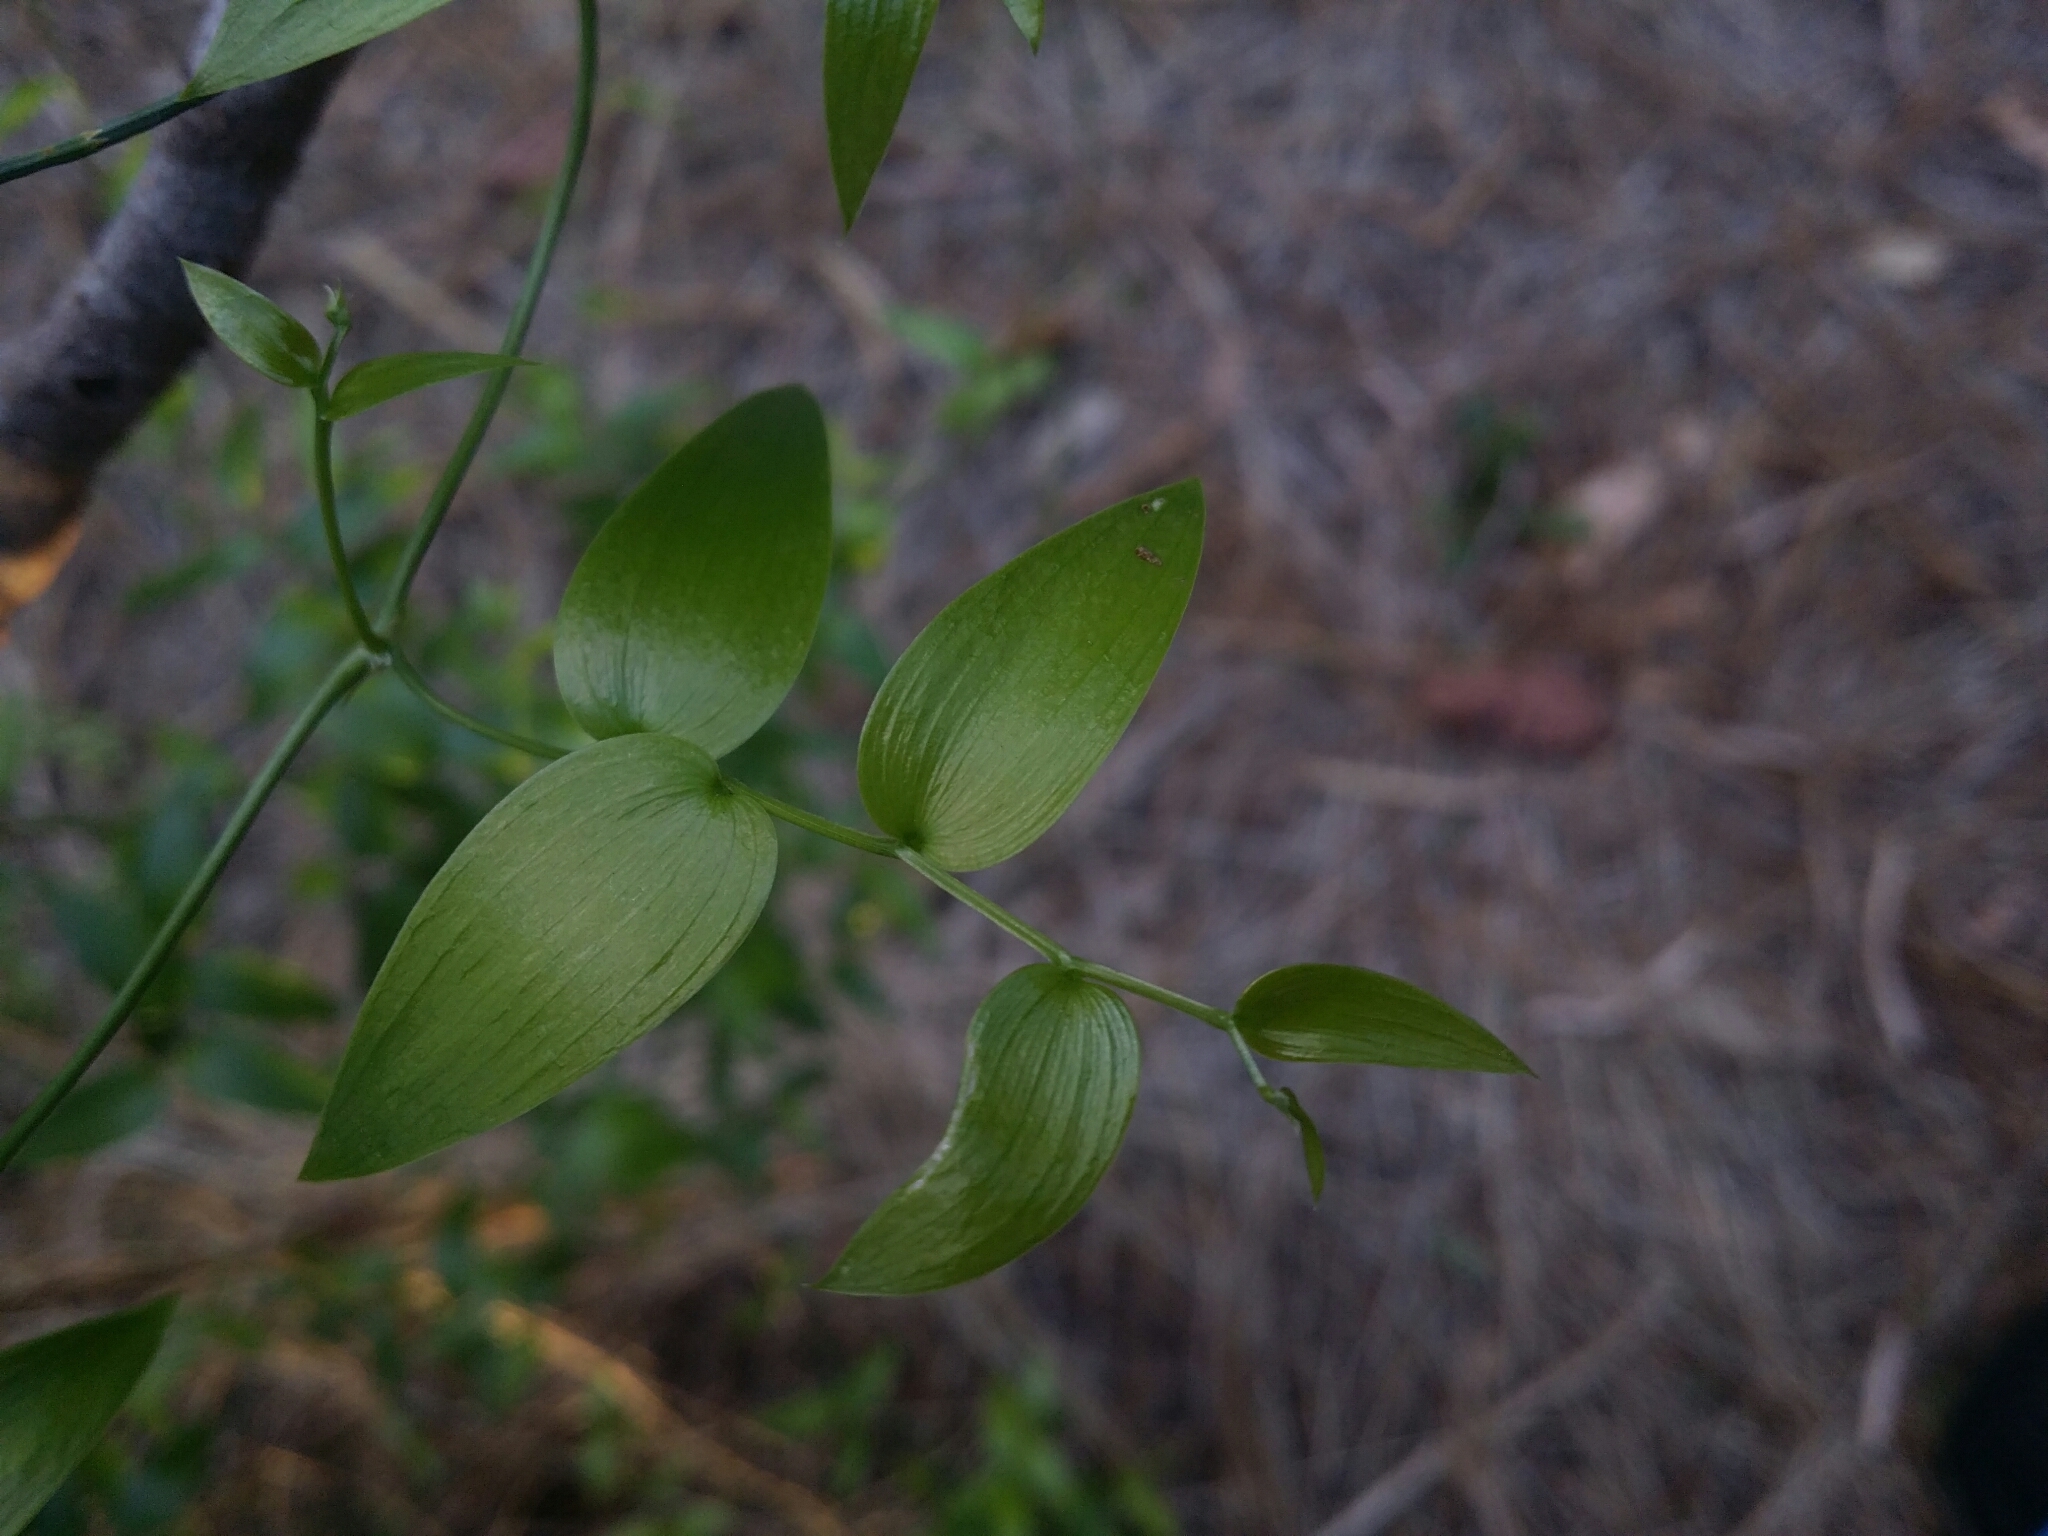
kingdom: Plantae
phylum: Tracheophyta
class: Liliopsida
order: Asparagales
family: Asparagaceae
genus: Asparagus
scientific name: Asparagus asparagoides
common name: African asparagus fern
